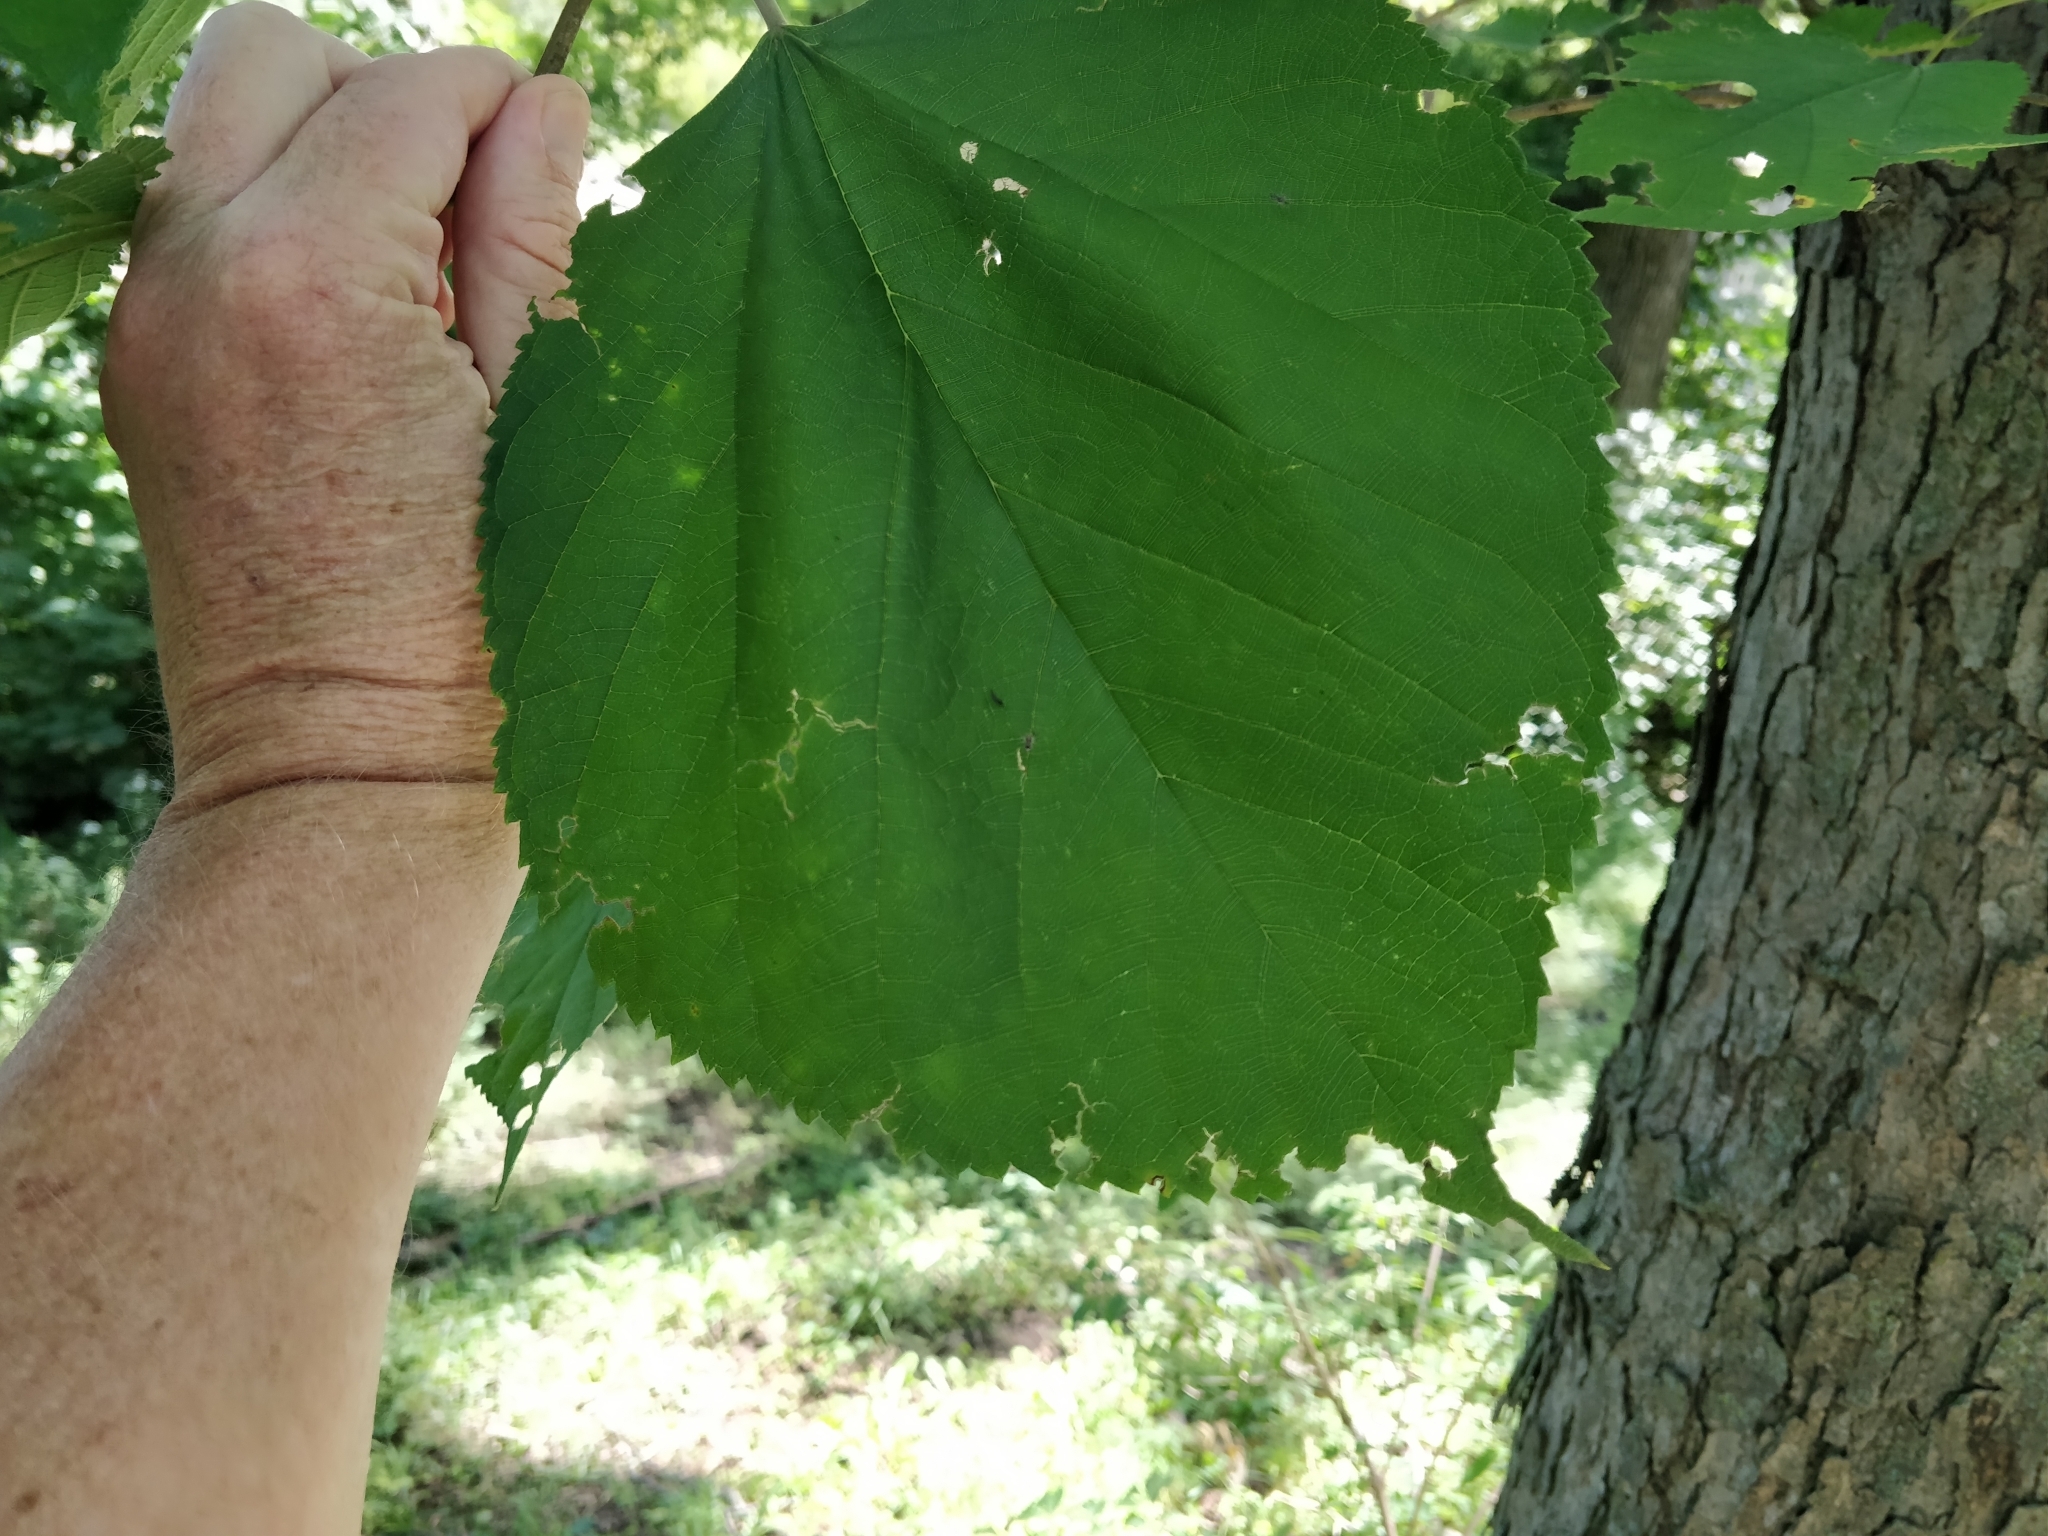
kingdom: Plantae
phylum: Tracheophyta
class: Magnoliopsida
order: Rosales
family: Moraceae
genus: Morus
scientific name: Morus rubra
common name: Red mulberry
